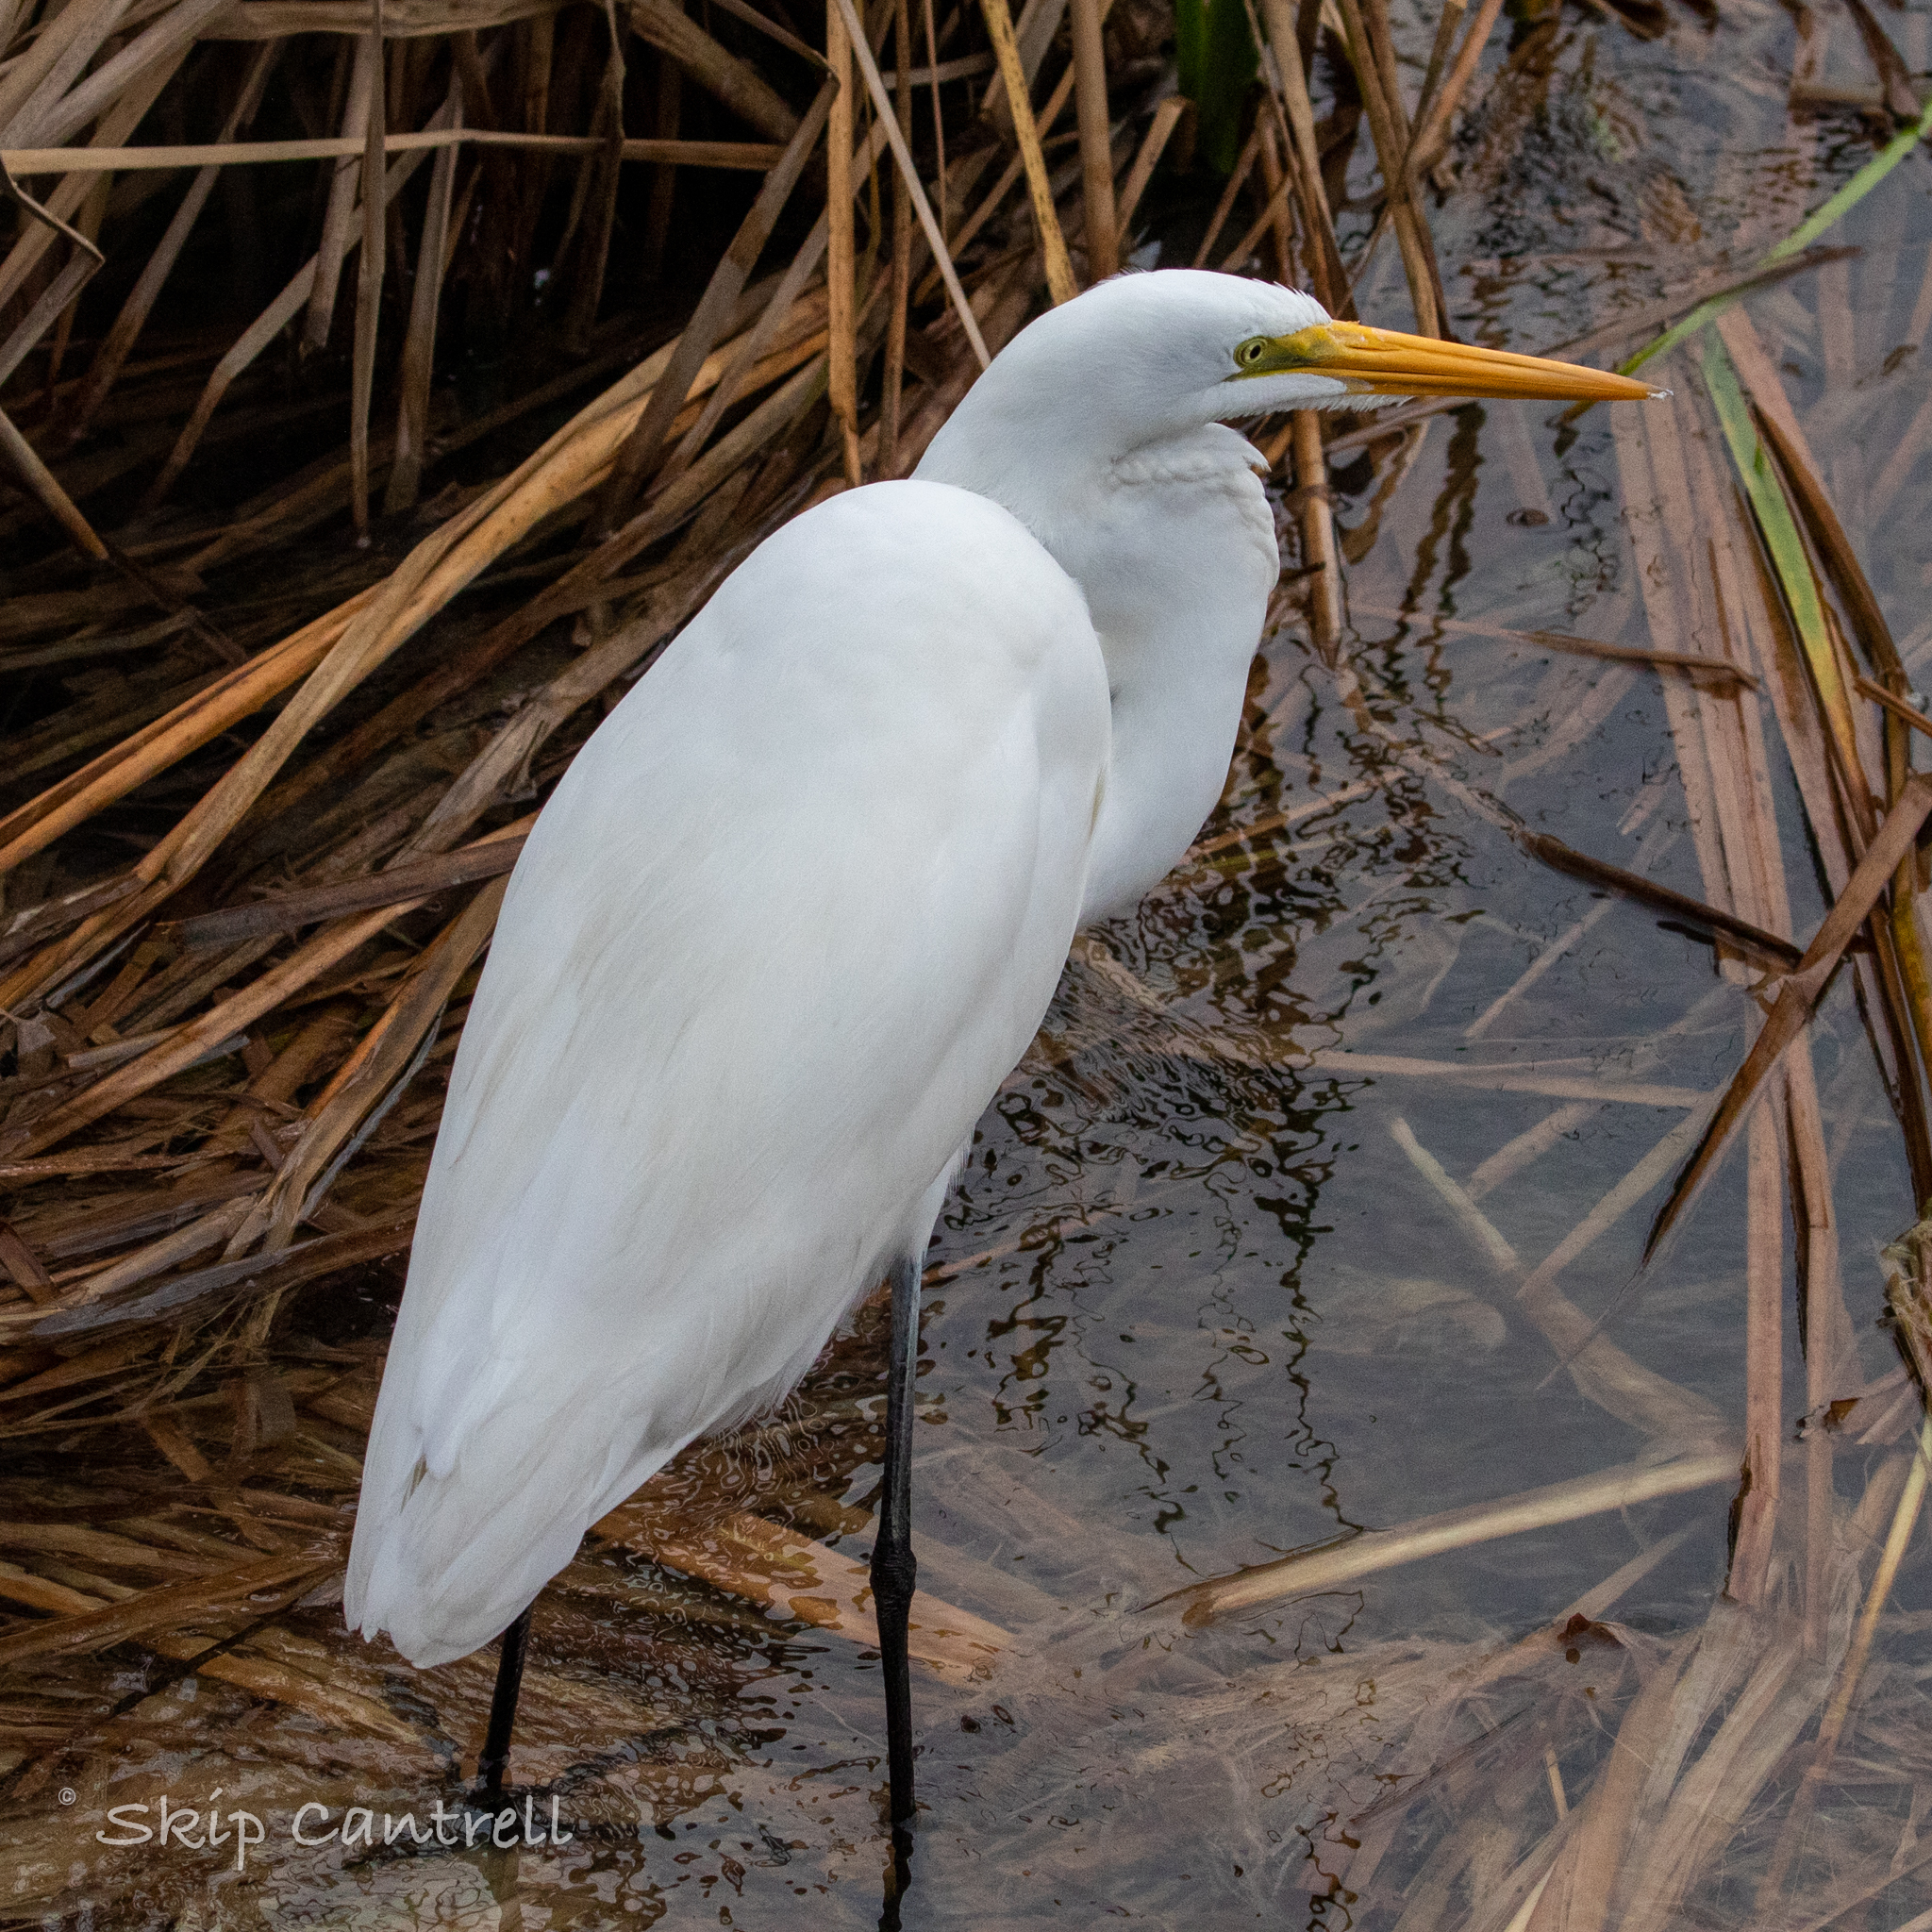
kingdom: Animalia
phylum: Chordata
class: Aves
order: Pelecaniformes
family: Ardeidae
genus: Ardea
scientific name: Ardea alba
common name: Great egret
